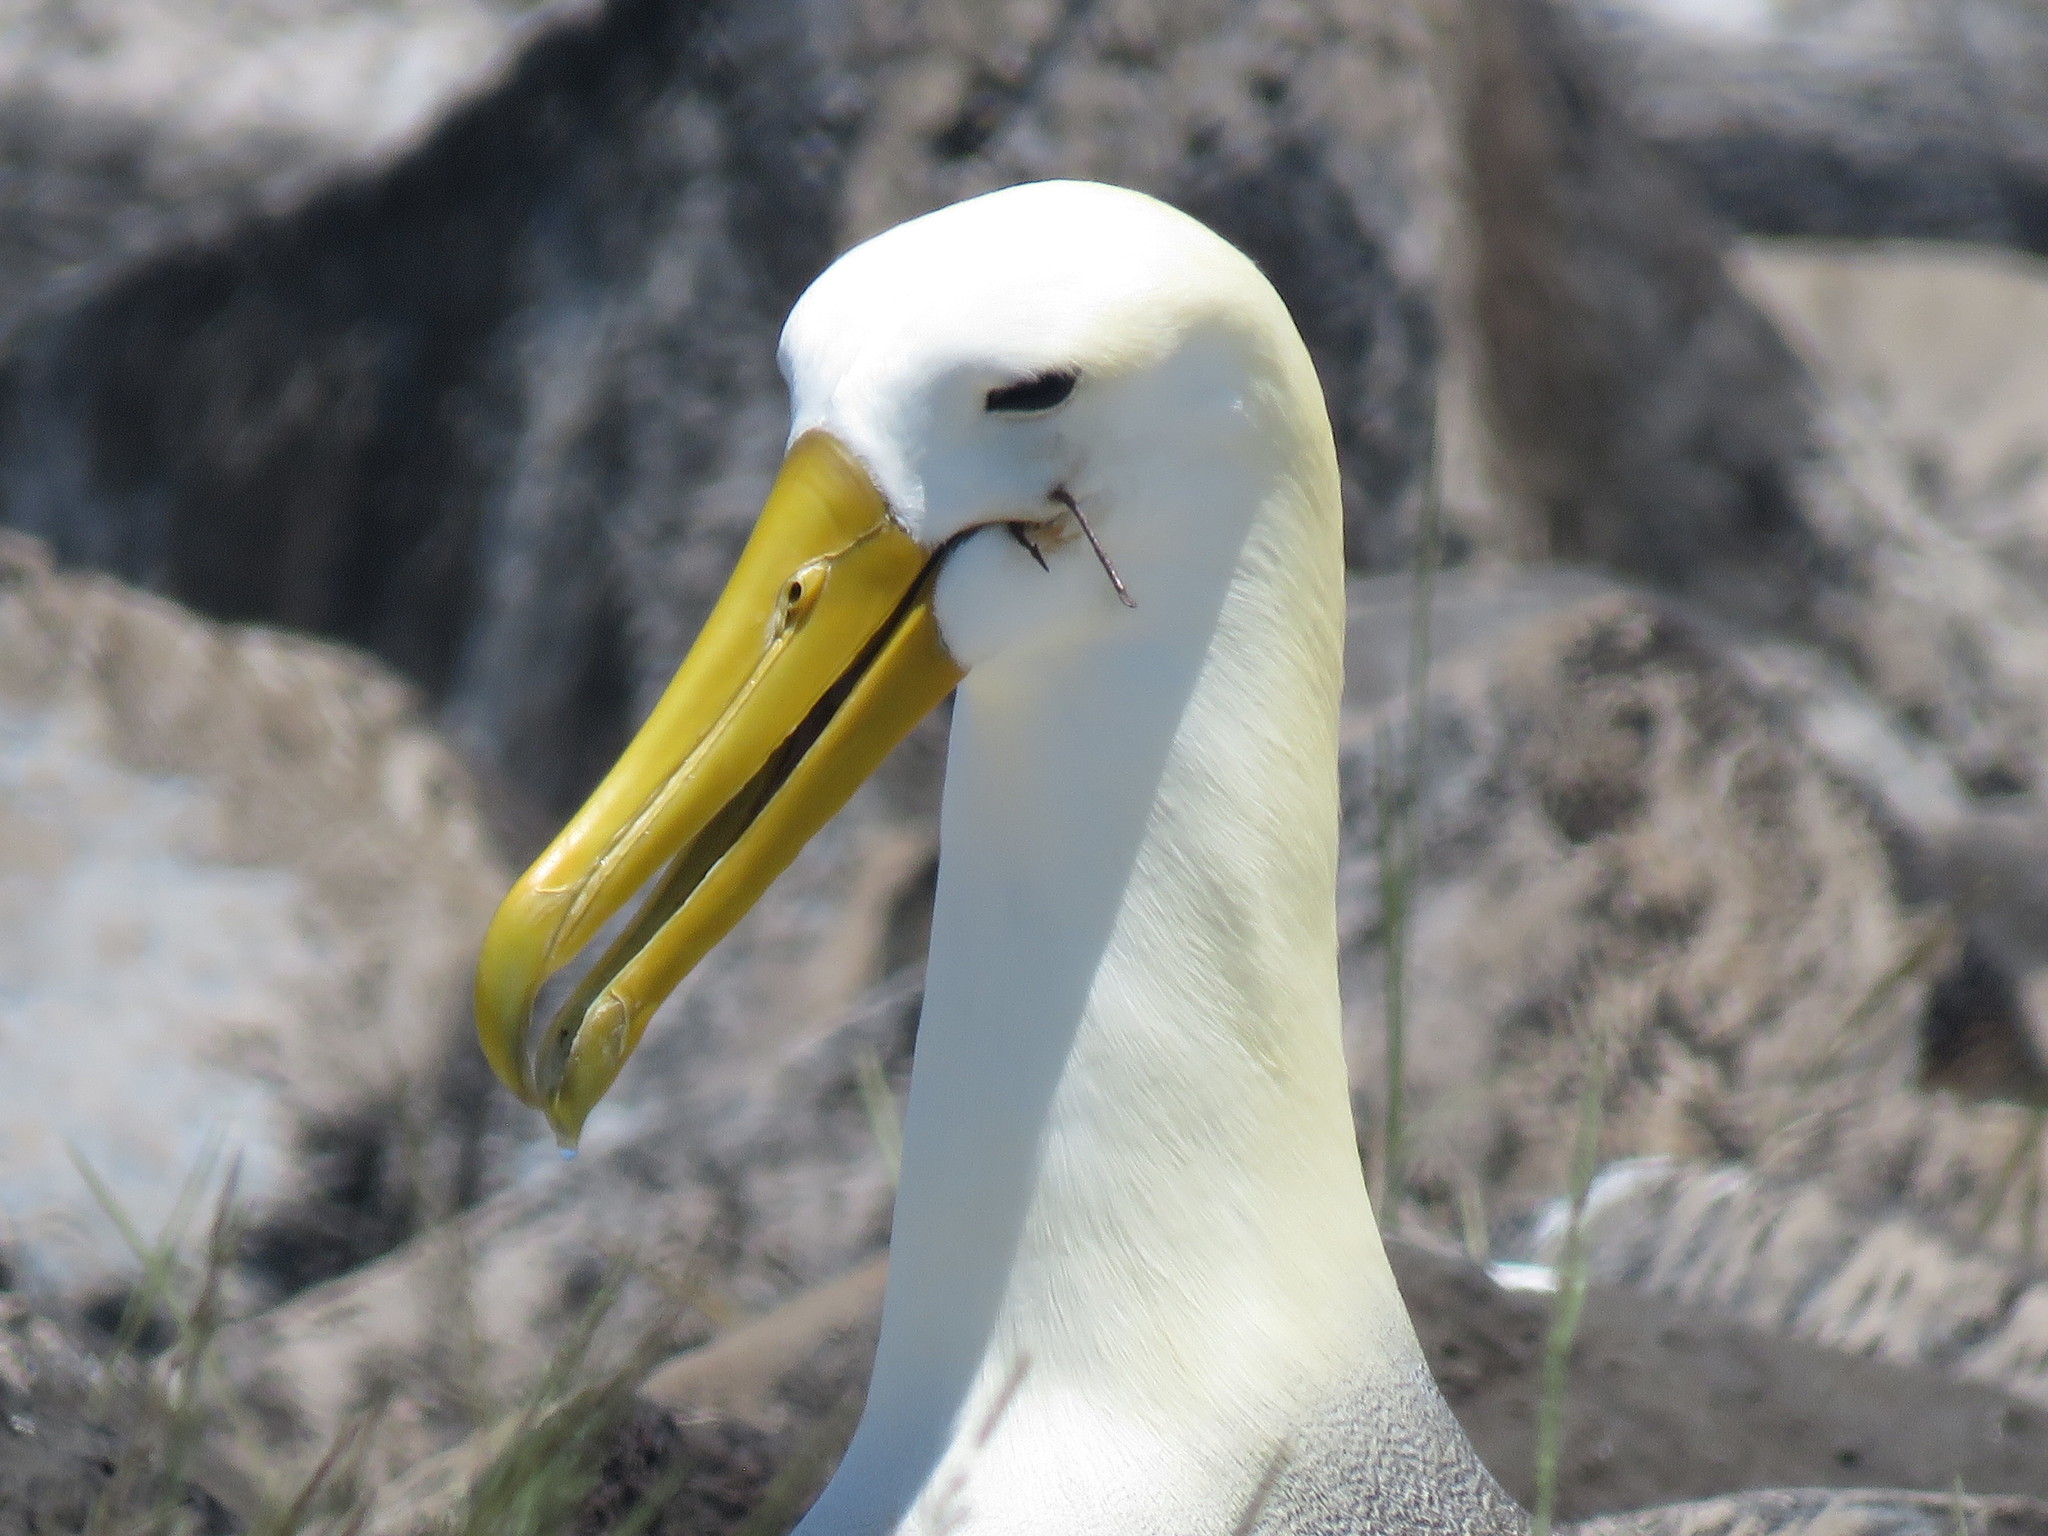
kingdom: Animalia
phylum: Chordata
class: Aves
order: Procellariiformes
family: Diomedeidae
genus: Phoebastria
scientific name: Phoebastria irrorata
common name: Waved albatross
